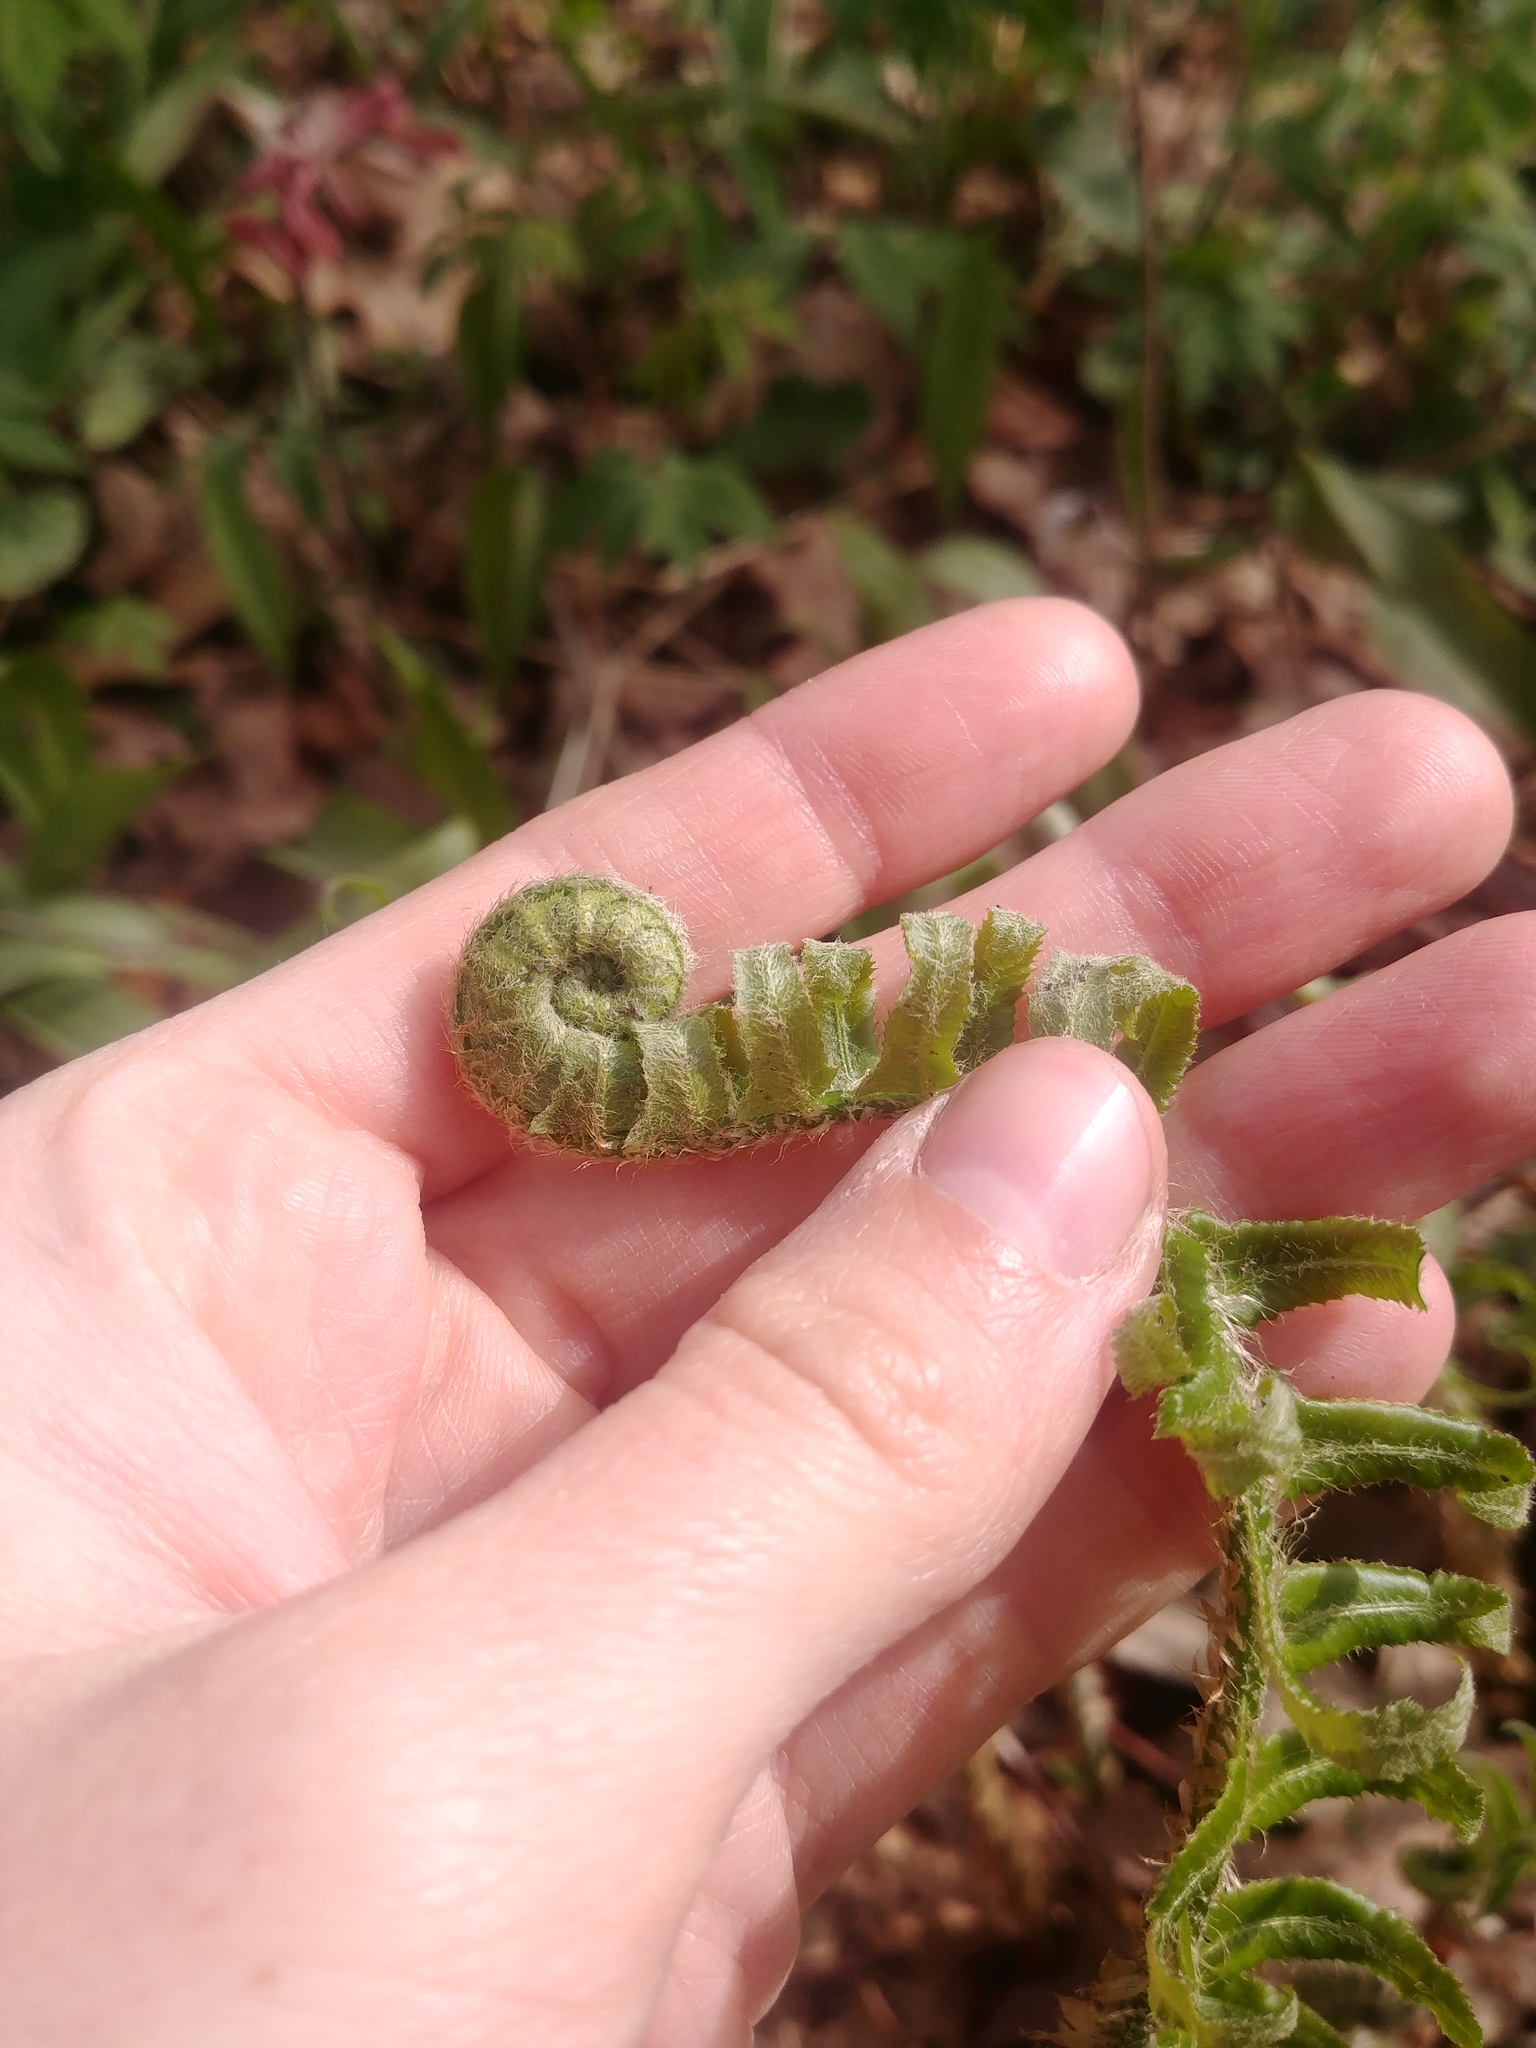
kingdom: Plantae
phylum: Tracheophyta
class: Polypodiopsida
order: Polypodiales
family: Dryopteridaceae
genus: Polystichum
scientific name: Polystichum acrostichoides
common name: Christmas fern
